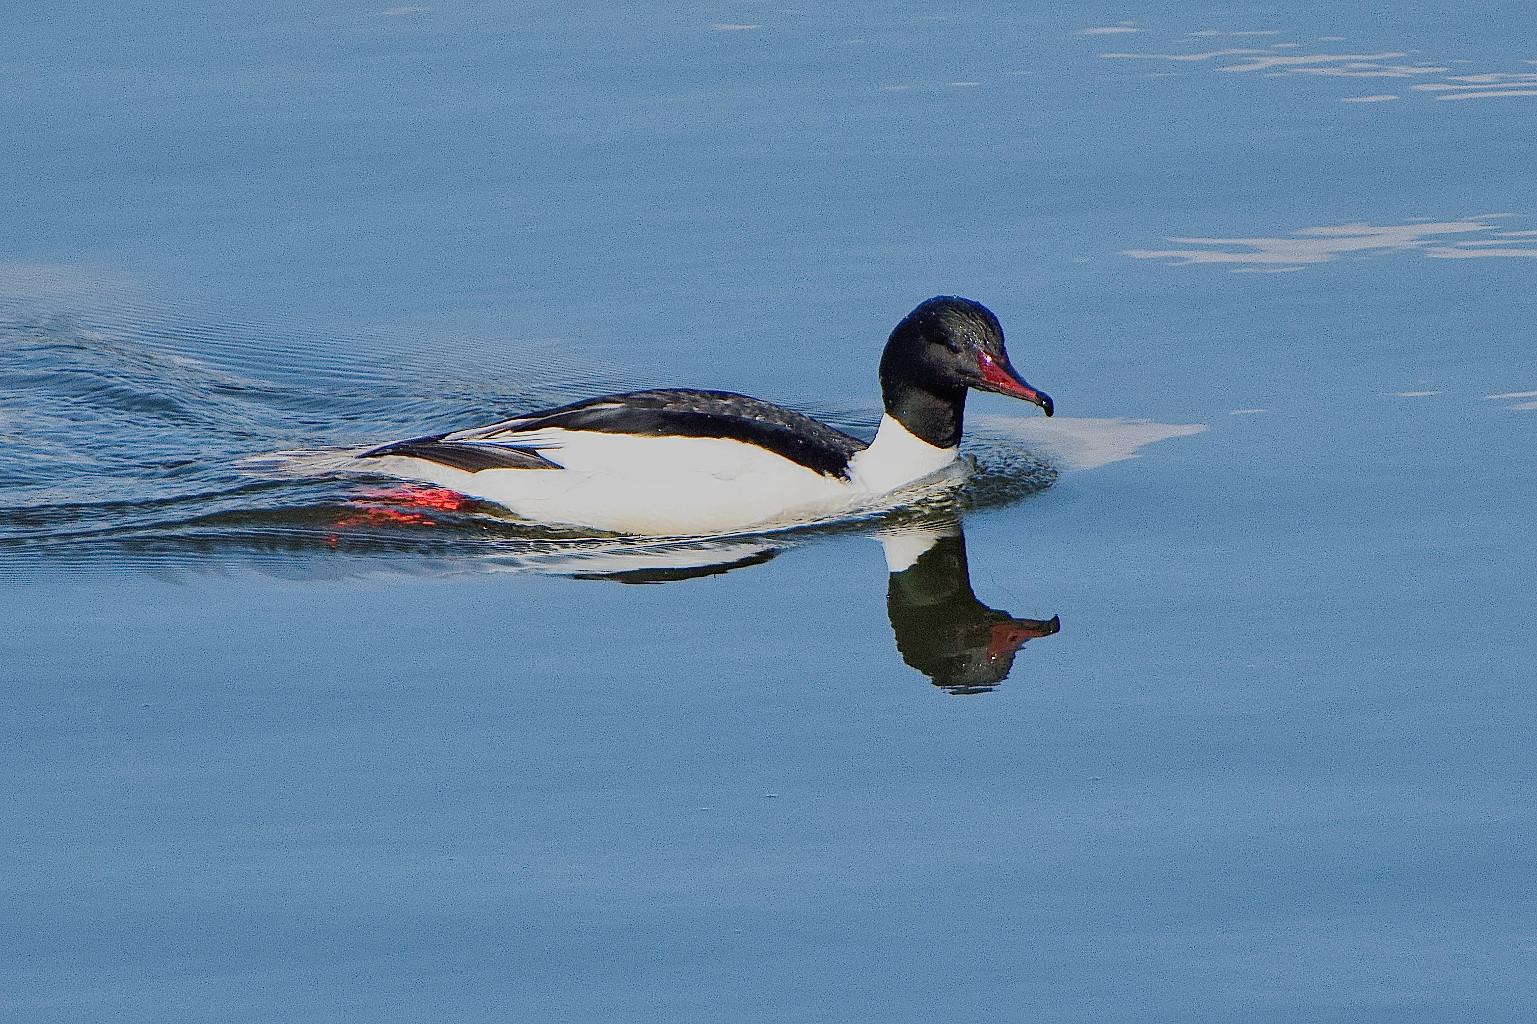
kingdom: Animalia
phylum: Chordata
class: Aves
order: Anseriformes
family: Anatidae
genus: Mergus
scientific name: Mergus merganser
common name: Common merganser
